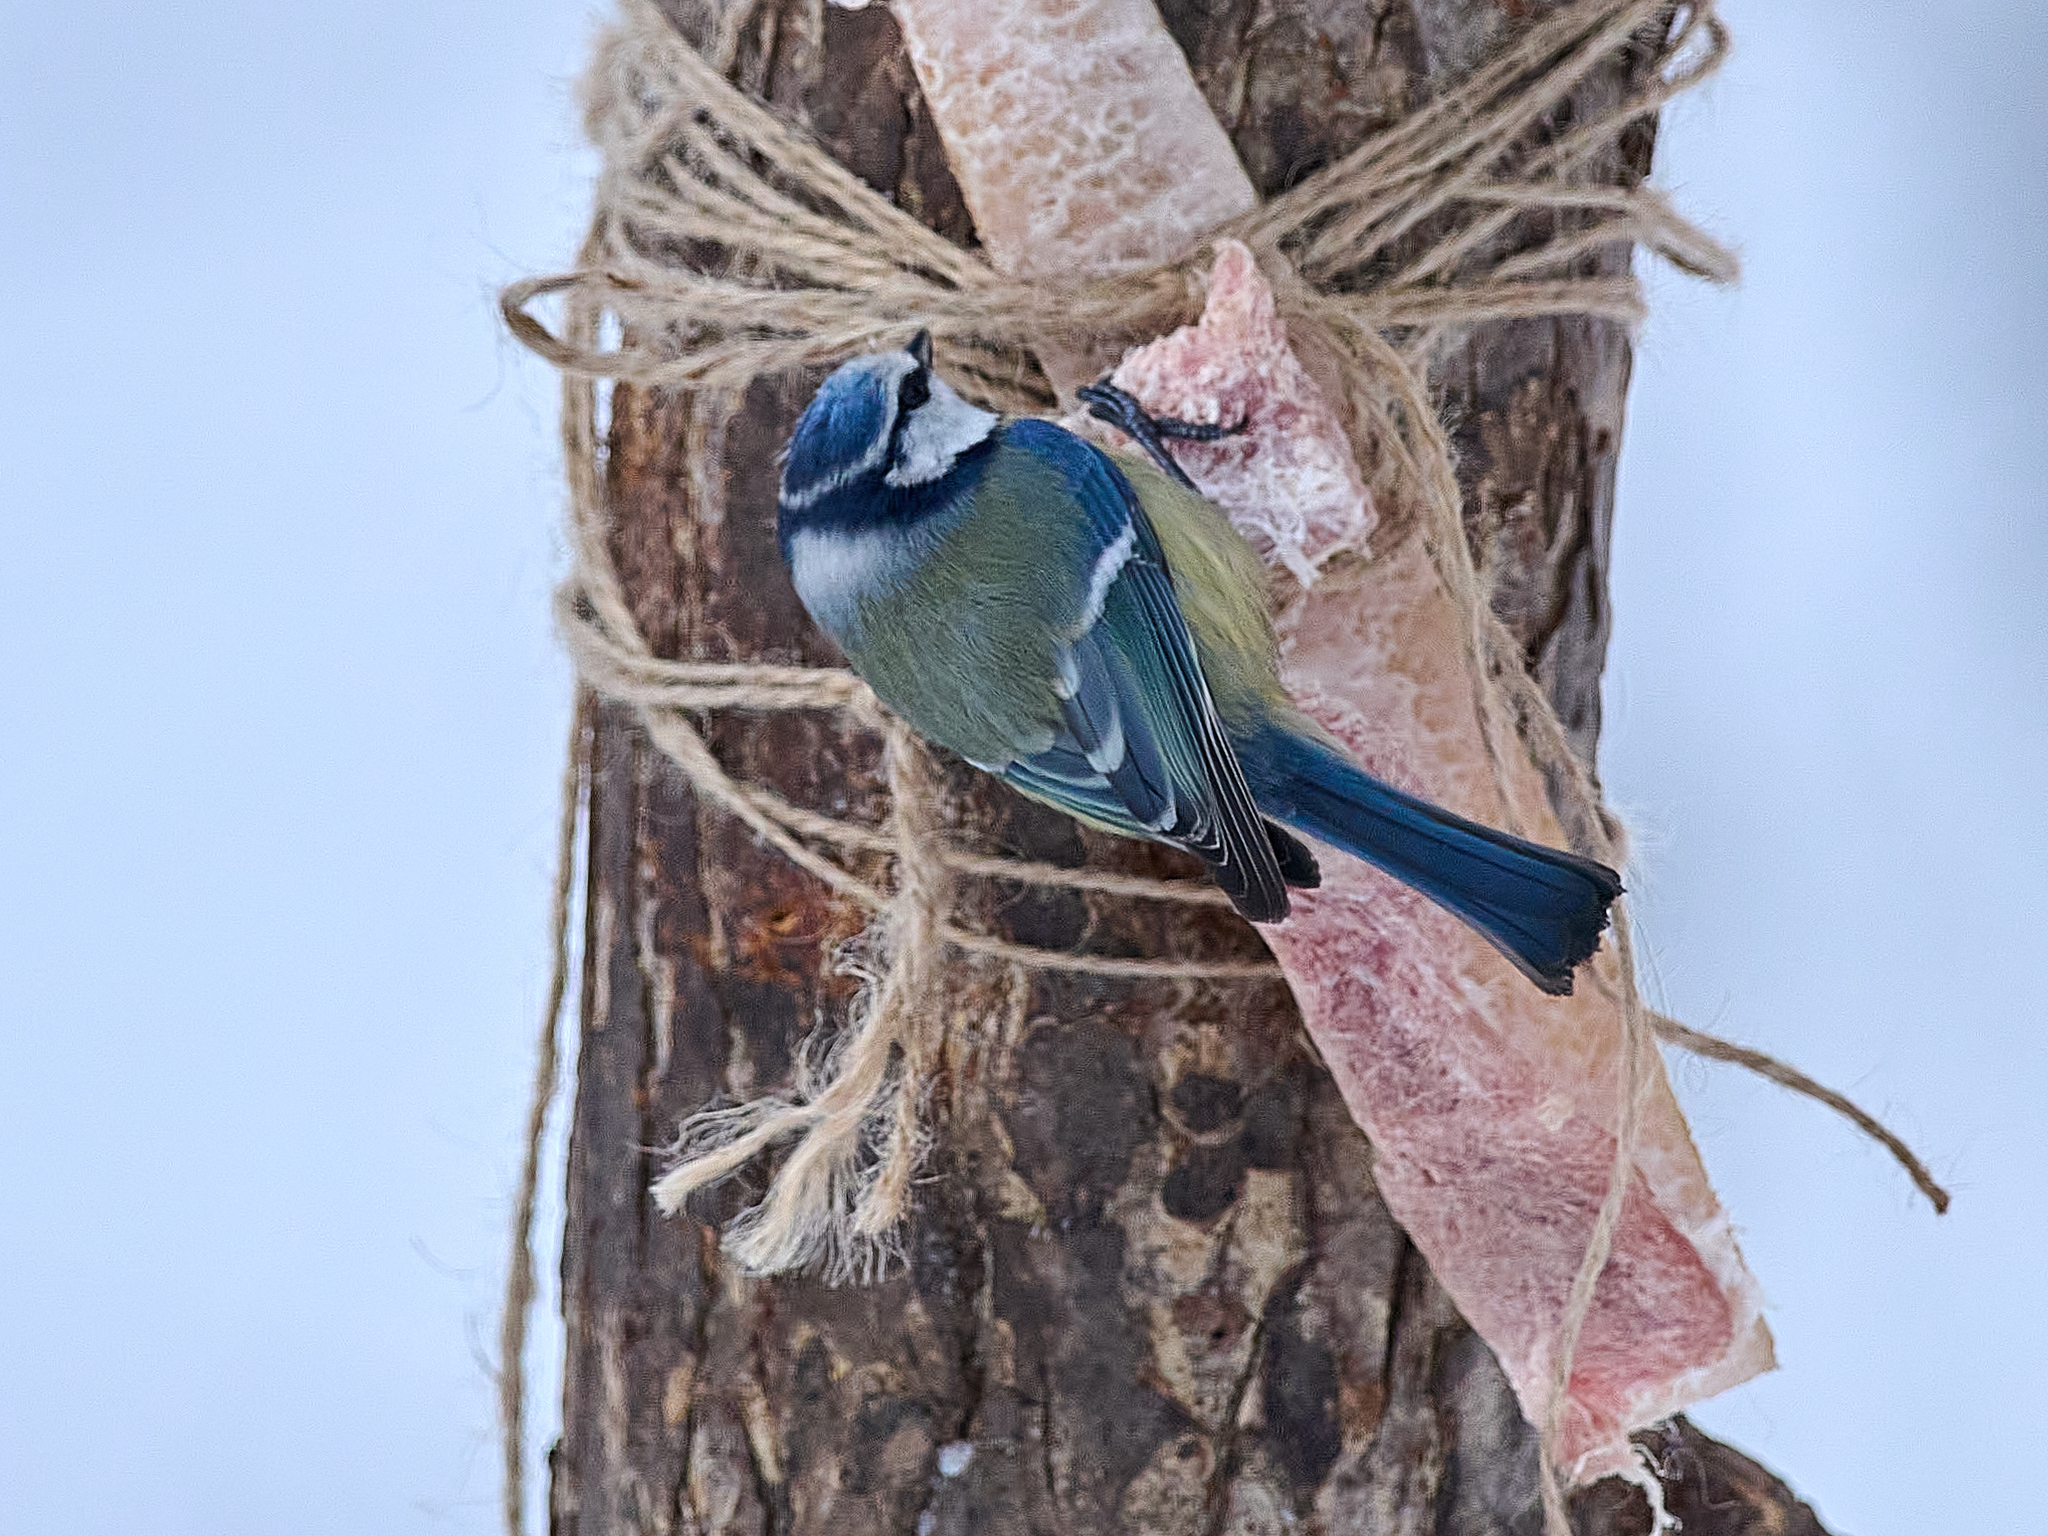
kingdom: Animalia
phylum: Chordata
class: Aves
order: Passeriformes
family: Paridae
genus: Cyanistes
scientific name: Cyanistes caeruleus
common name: Eurasian blue tit
